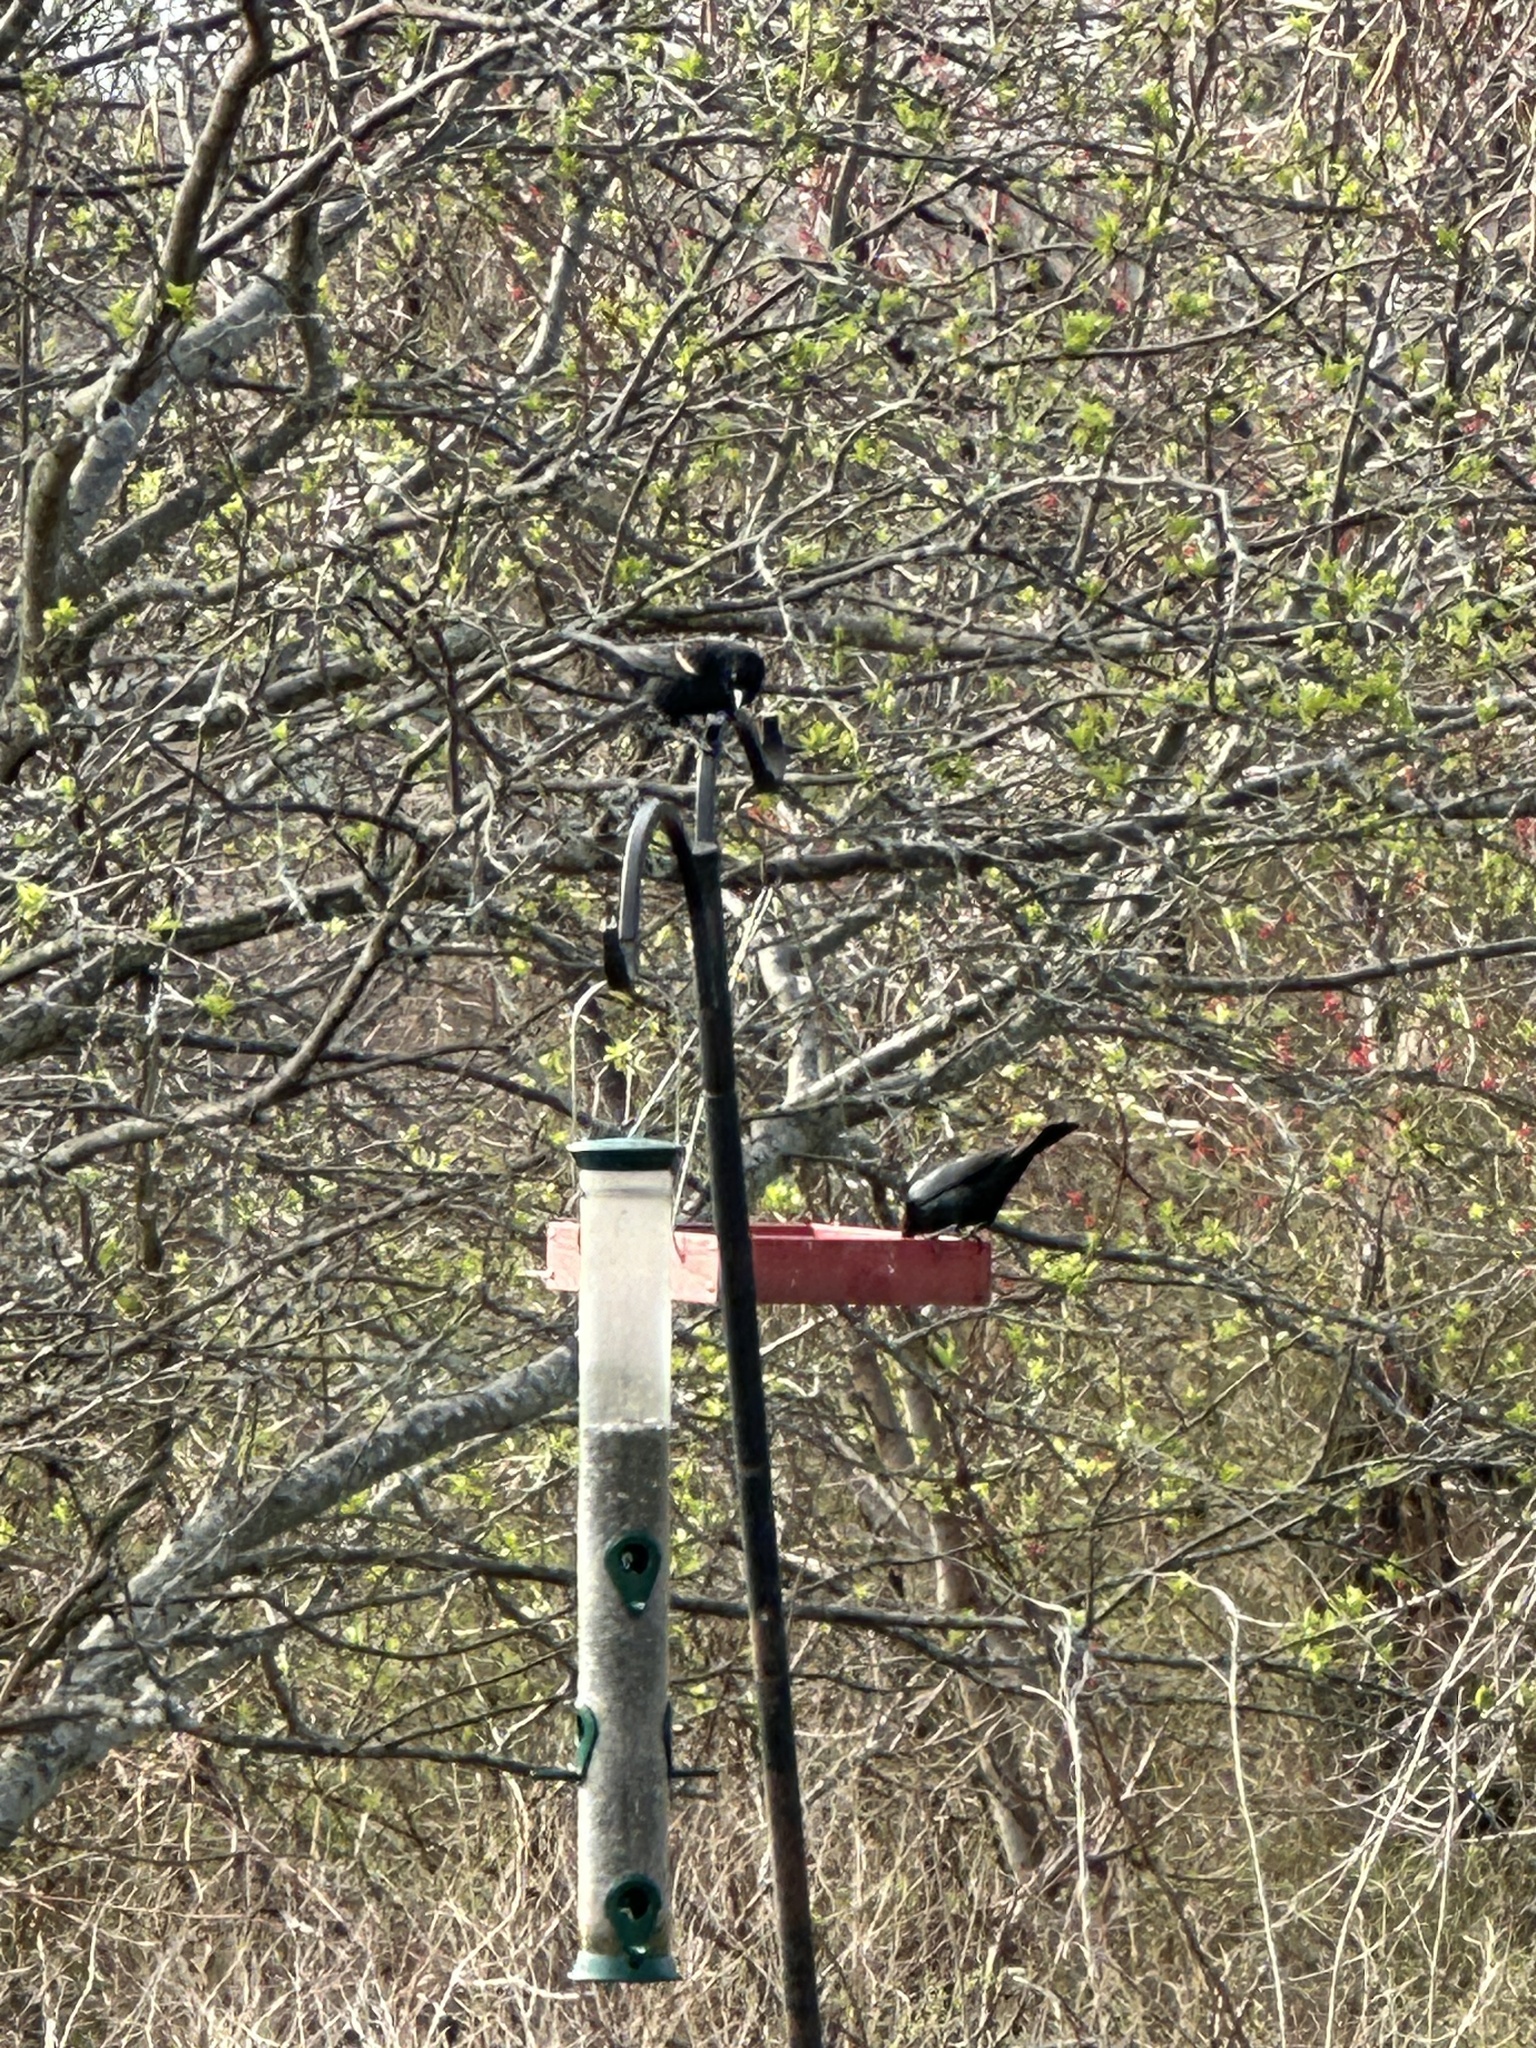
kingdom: Animalia
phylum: Chordata
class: Aves
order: Passeriformes
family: Icteridae
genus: Agelaius
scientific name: Agelaius phoeniceus
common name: Red-winged blackbird
